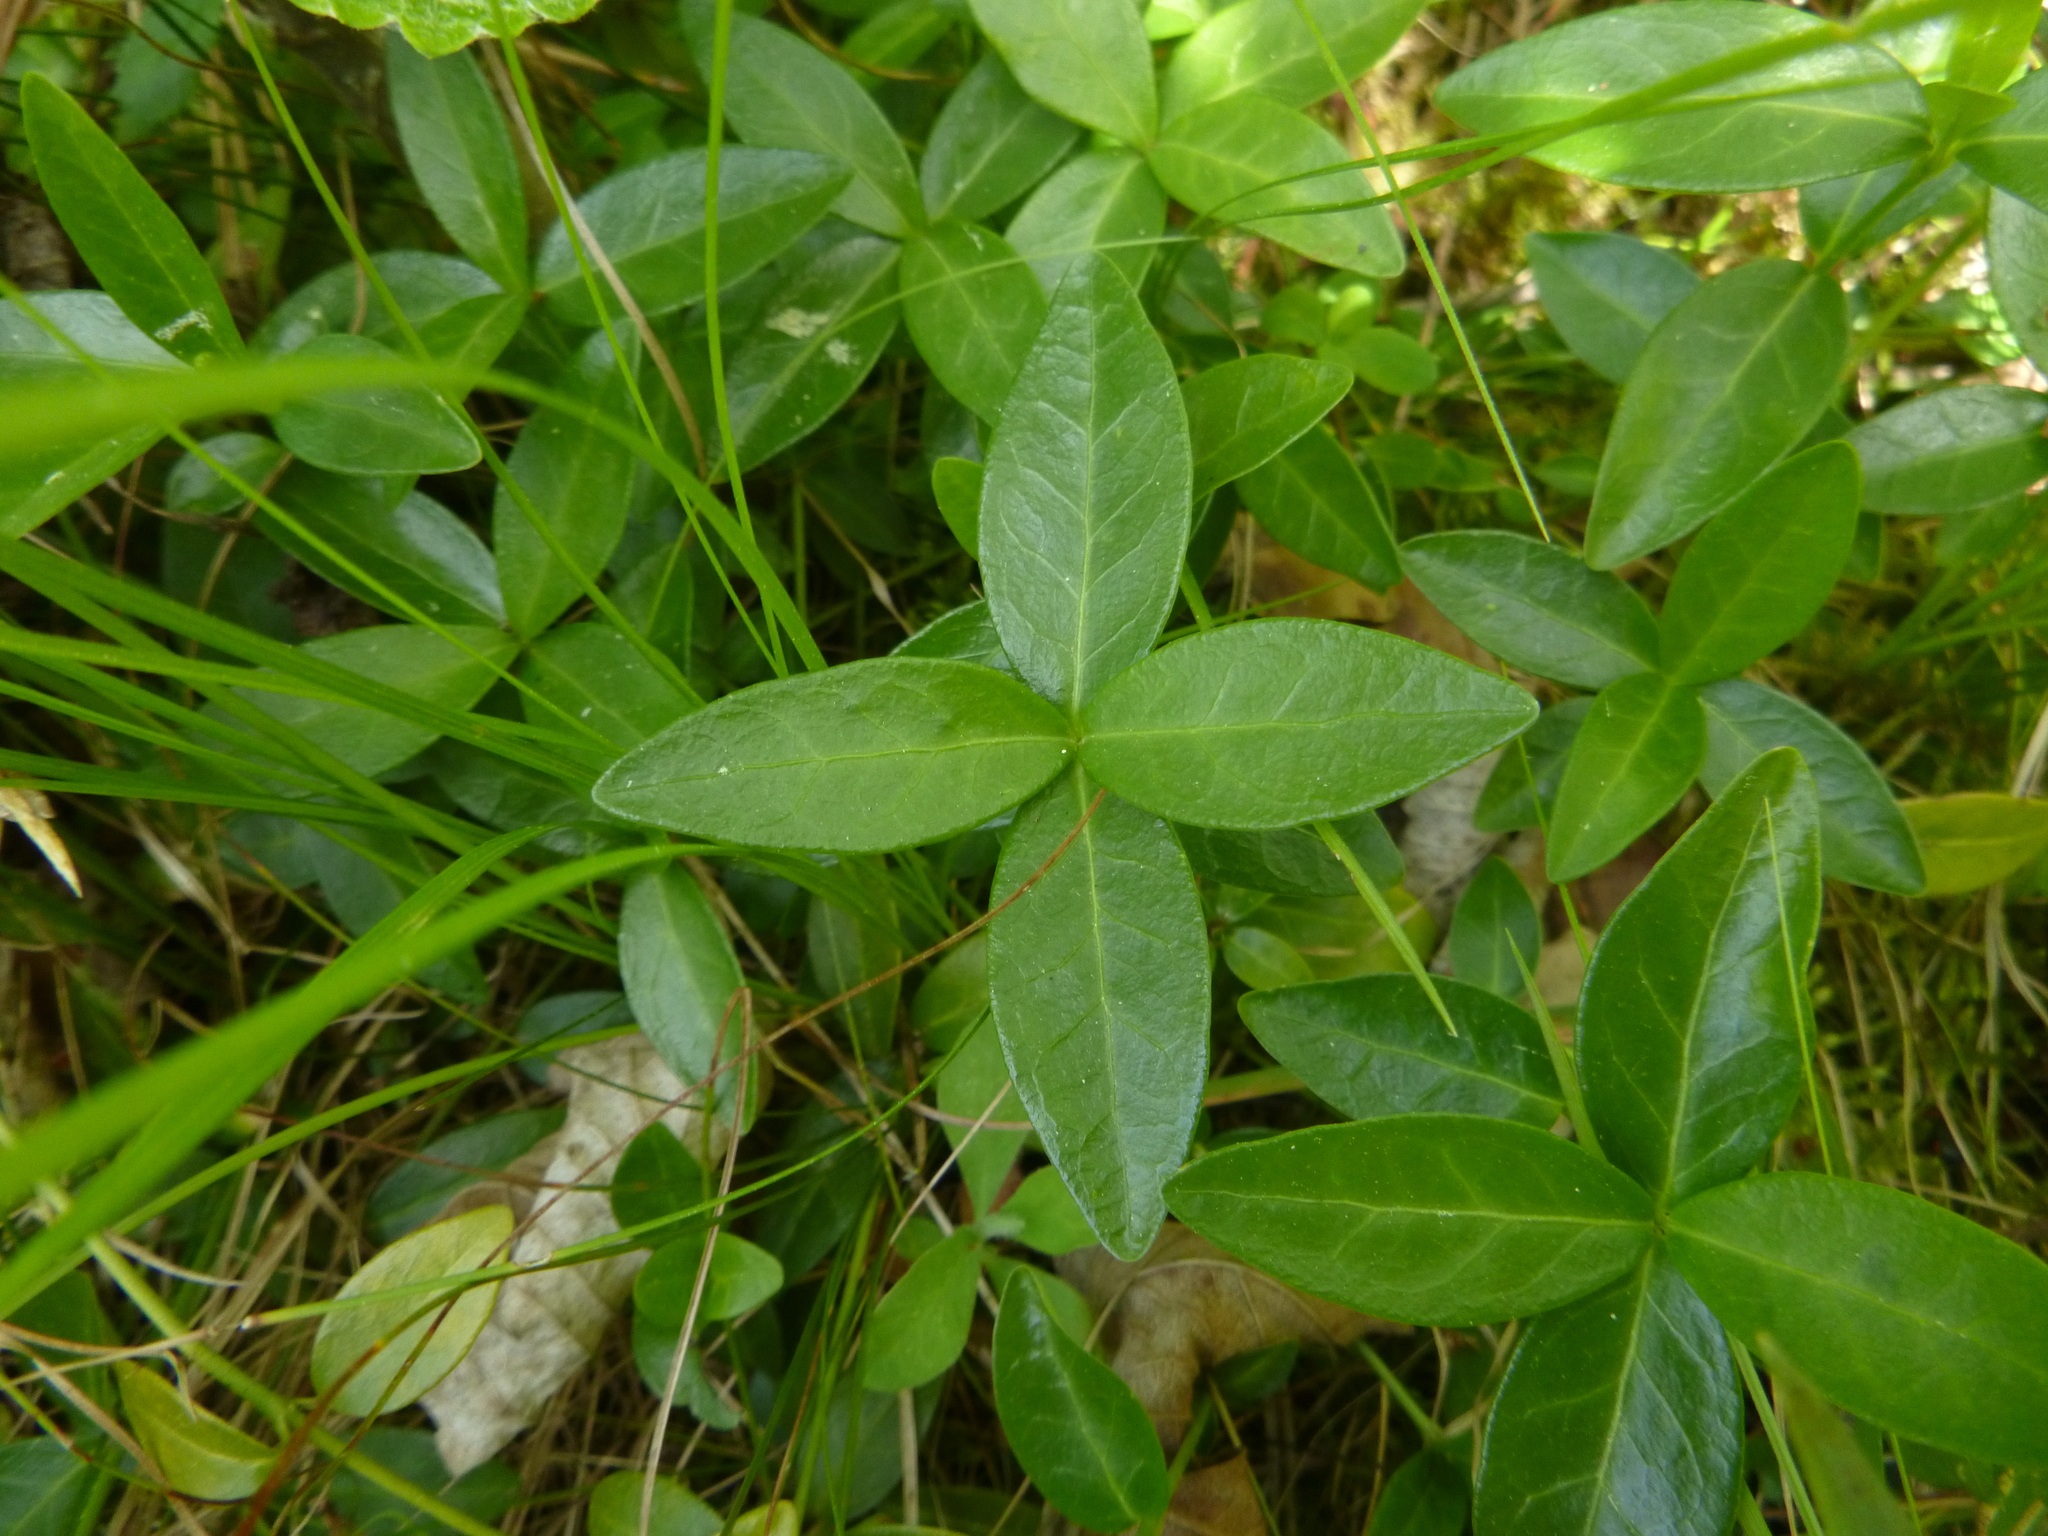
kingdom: Plantae
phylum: Tracheophyta
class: Magnoliopsida
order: Gentianales
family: Apocynaceae
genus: Vinca
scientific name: Vinca minor
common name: Lesser periwinkle
